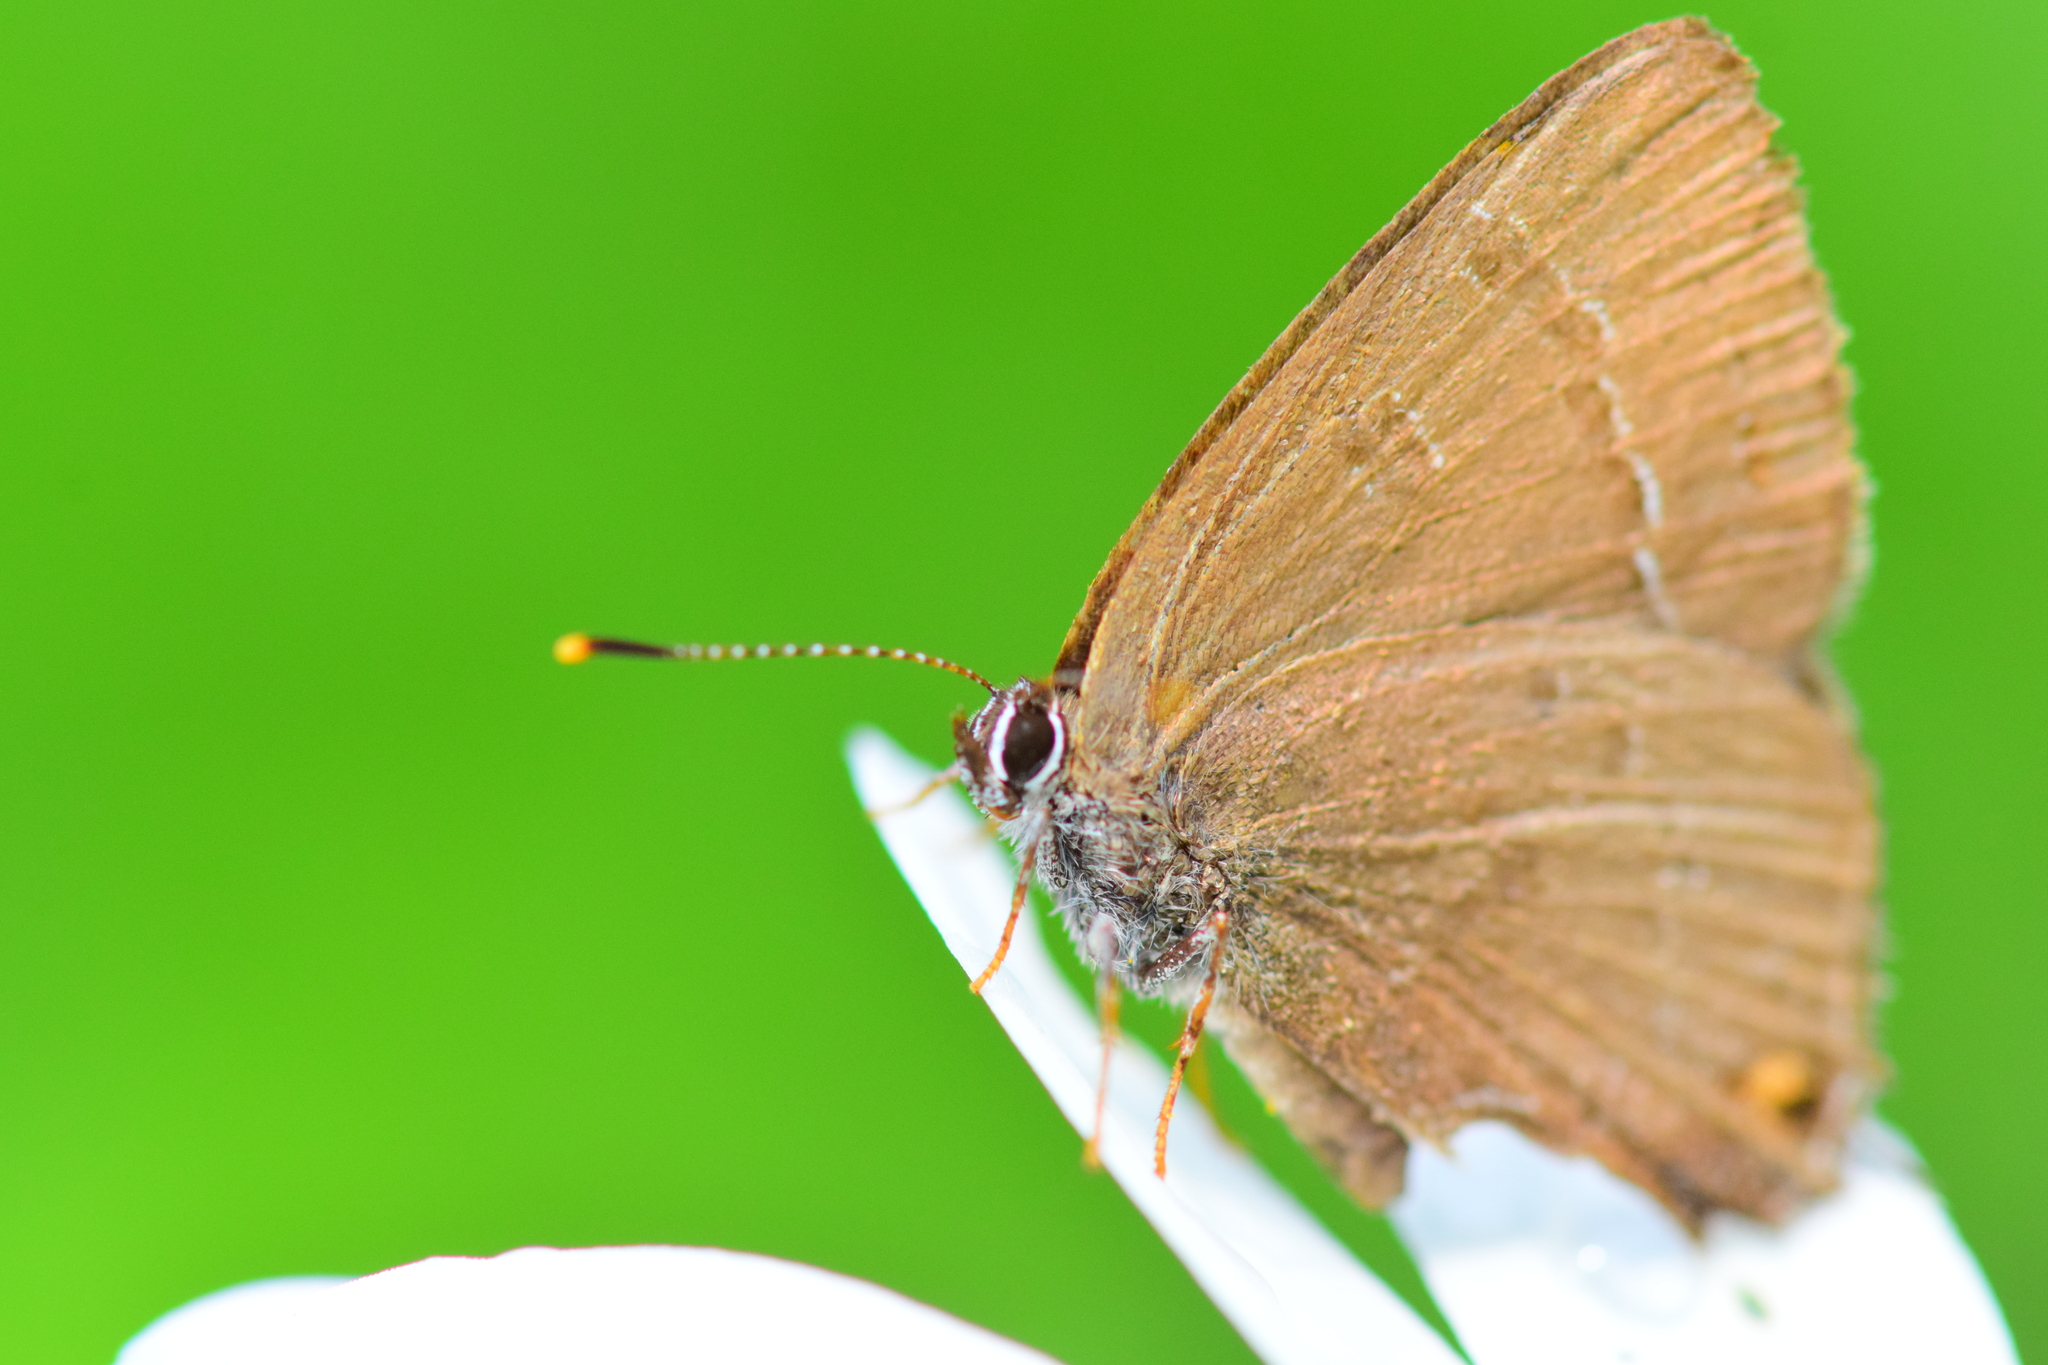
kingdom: Animalia
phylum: Arthropoda
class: Insecta
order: Lepidoptera
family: Lycaenidae
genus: Satyrium
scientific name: Satyrium calanus
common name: Banded hairstreak
